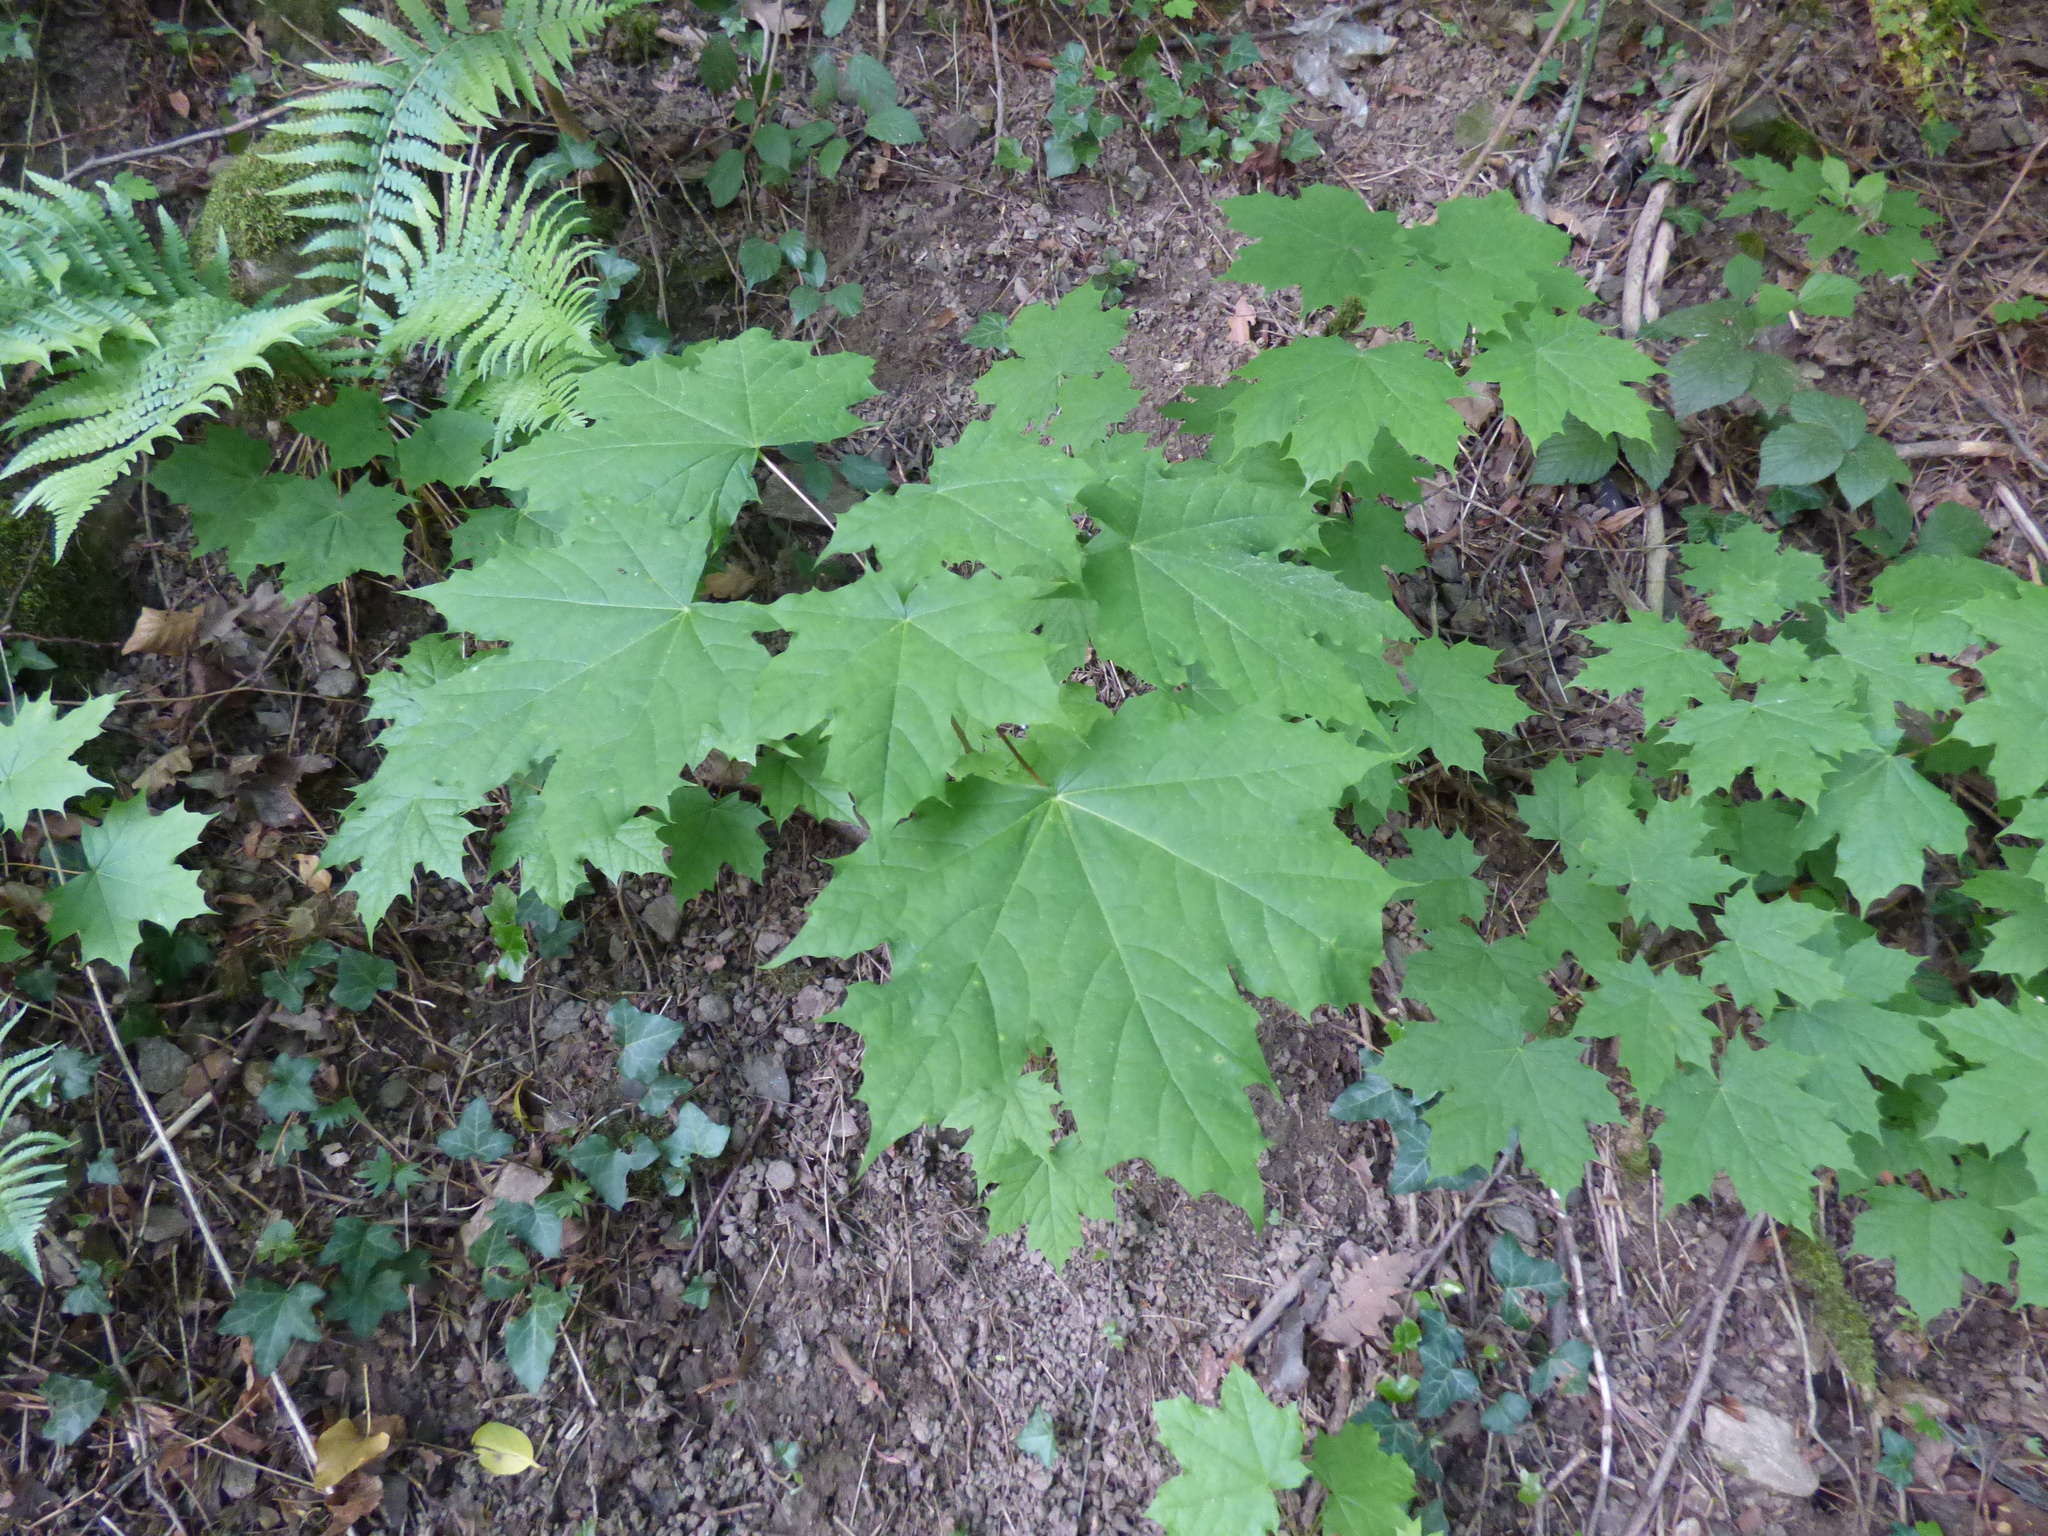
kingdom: Plantae
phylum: Tracheophyta
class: Magnoliopsida
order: Sapindales
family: Sapindaceae
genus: Acer
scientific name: Acer platanoides
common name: Norway maple
